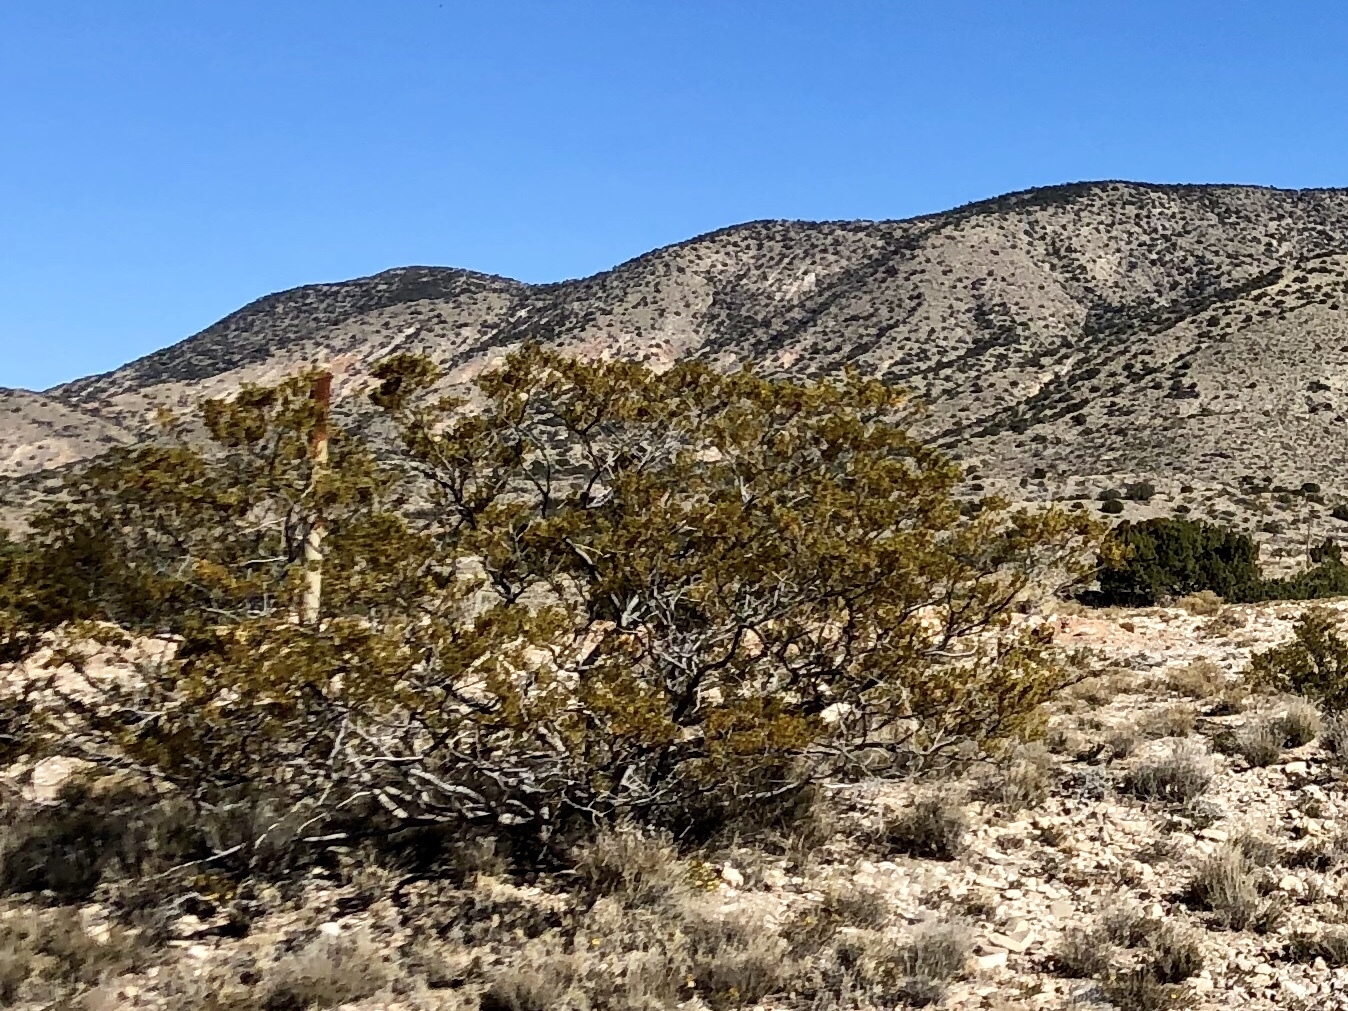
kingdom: Plantae
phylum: Tracheophyta
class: Magnoliopsida
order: Zygophyllales
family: Zygophyllaceae
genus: Larrea
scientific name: Larrea tridentata
